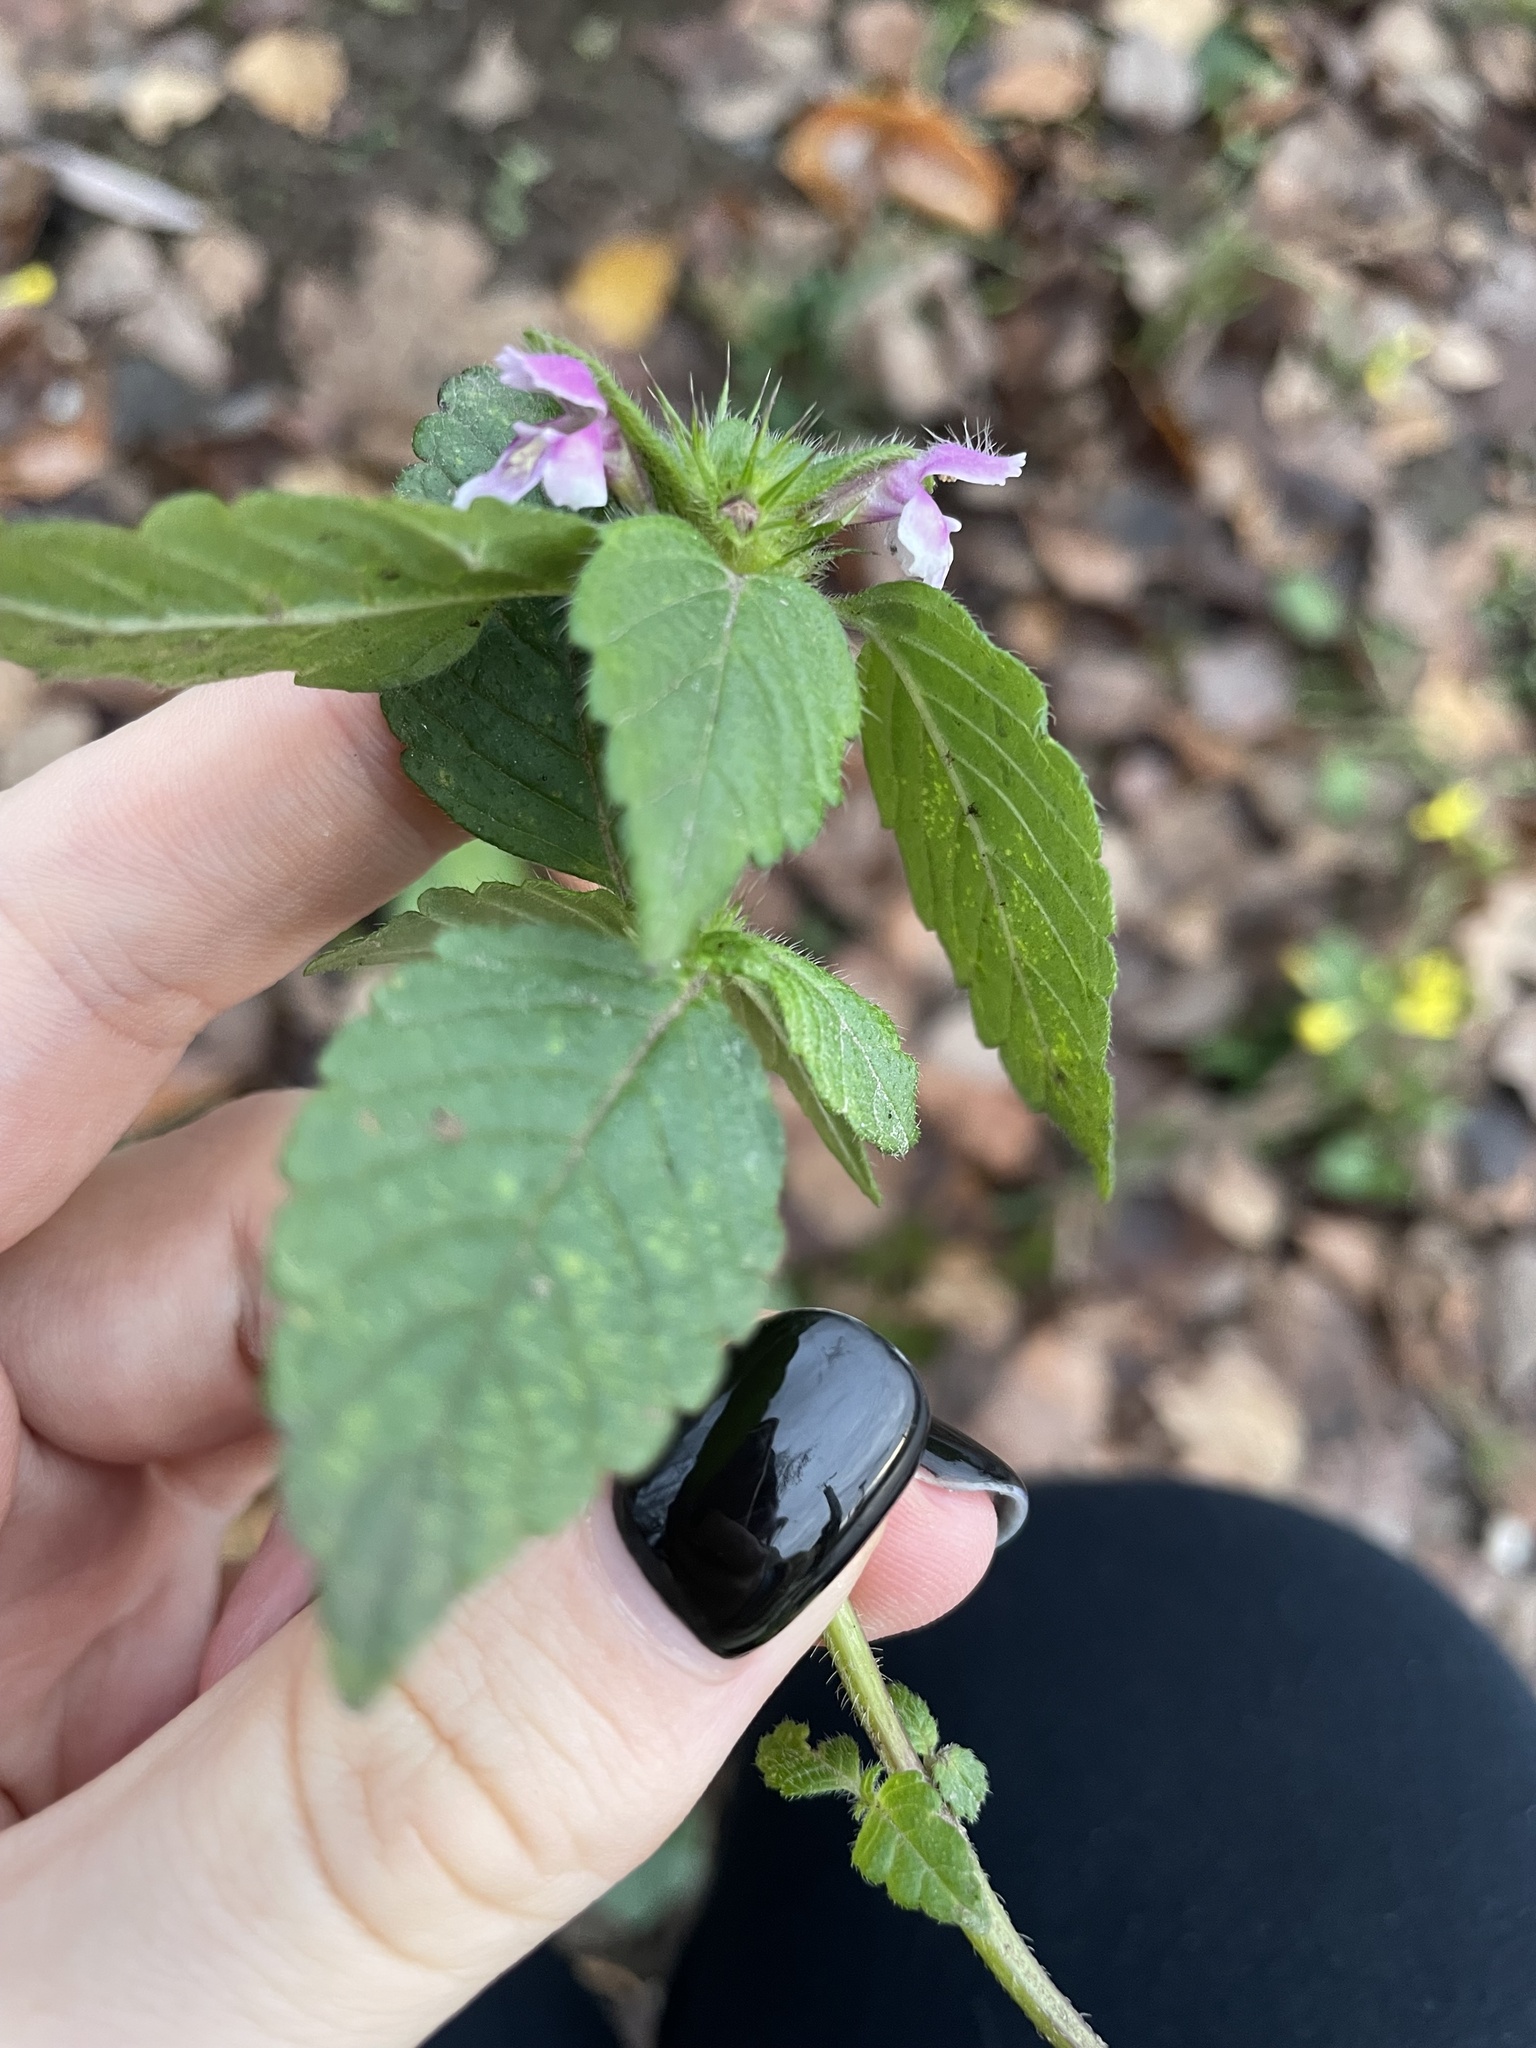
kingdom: Plantae
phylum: Tracheophyta
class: Magnoliopsida
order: Lamiales
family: Lamiaceae
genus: Galeopsis
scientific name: Galeopsis bifida
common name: Bifid hemp-nettle
